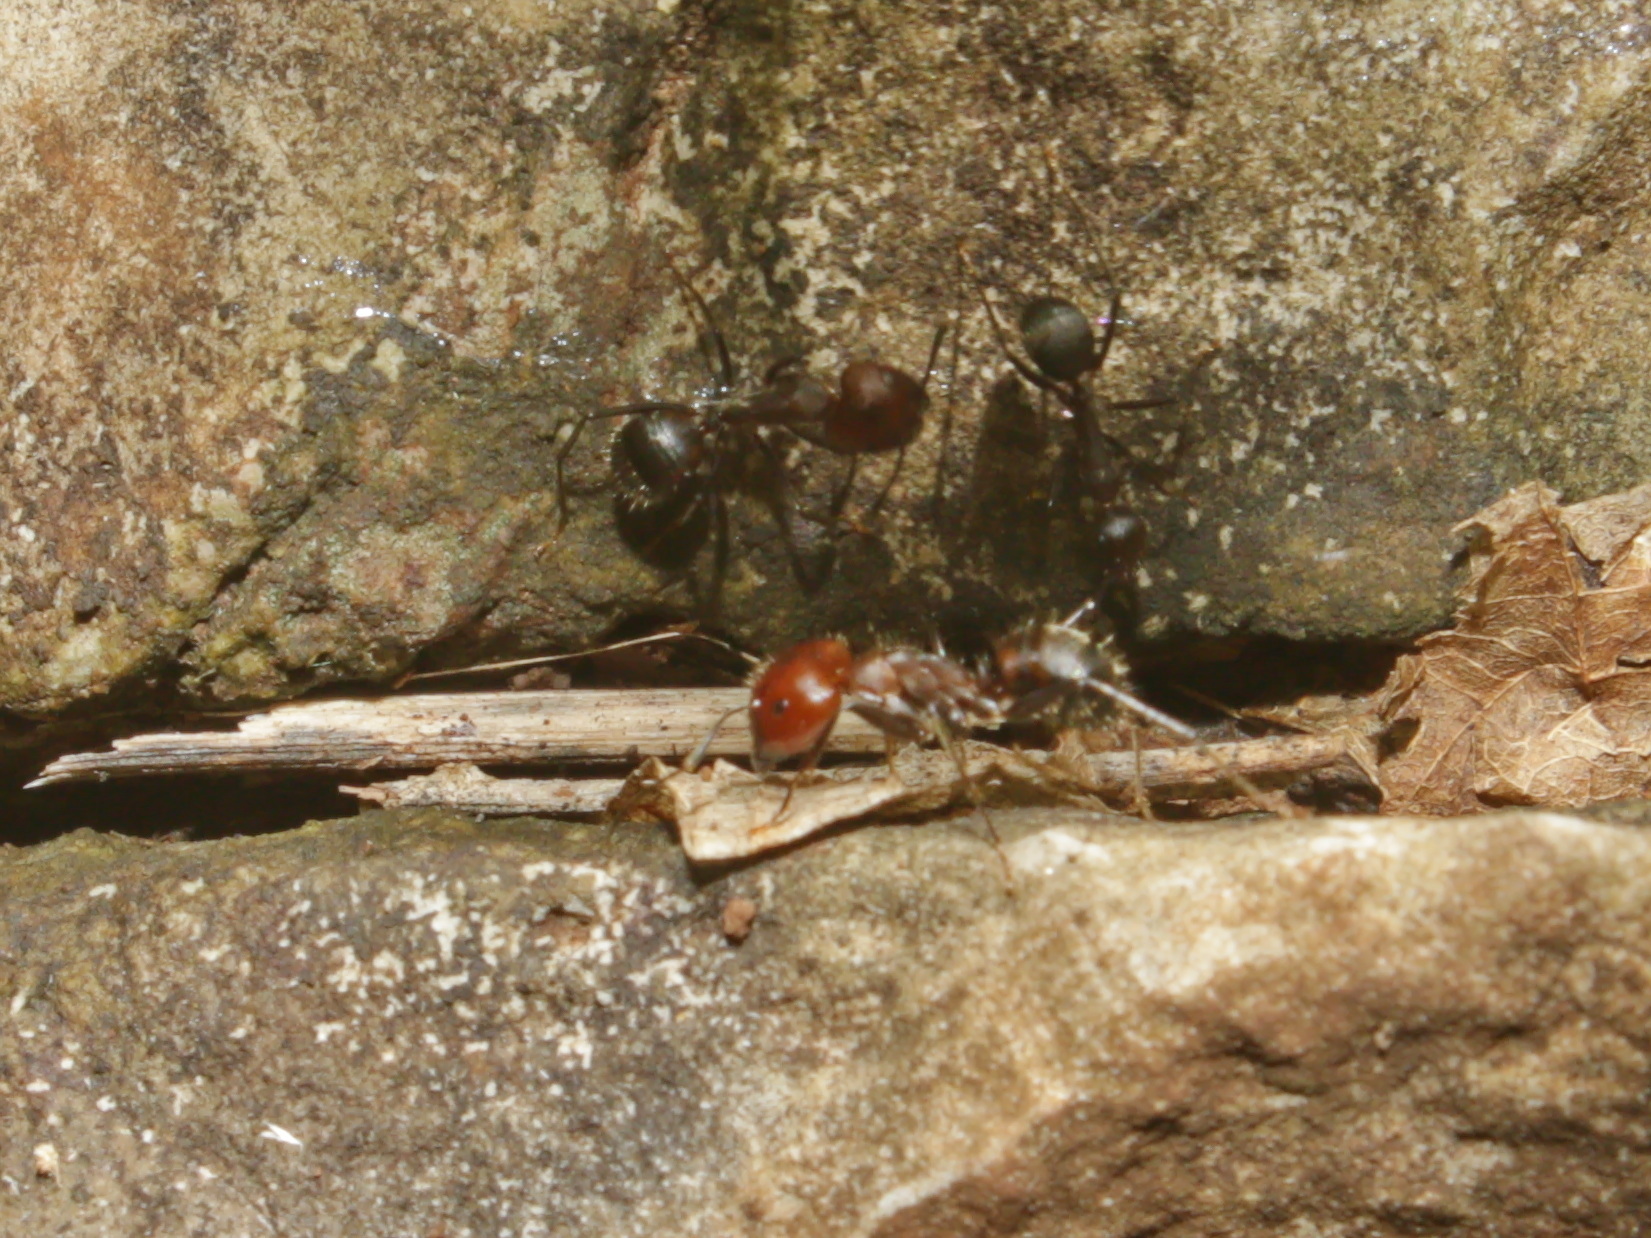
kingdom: Animalia
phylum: Arthropoda
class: Insecta
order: Hymenoptera
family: Formicidae
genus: Camponotus
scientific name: Camponotus nicobarensis
